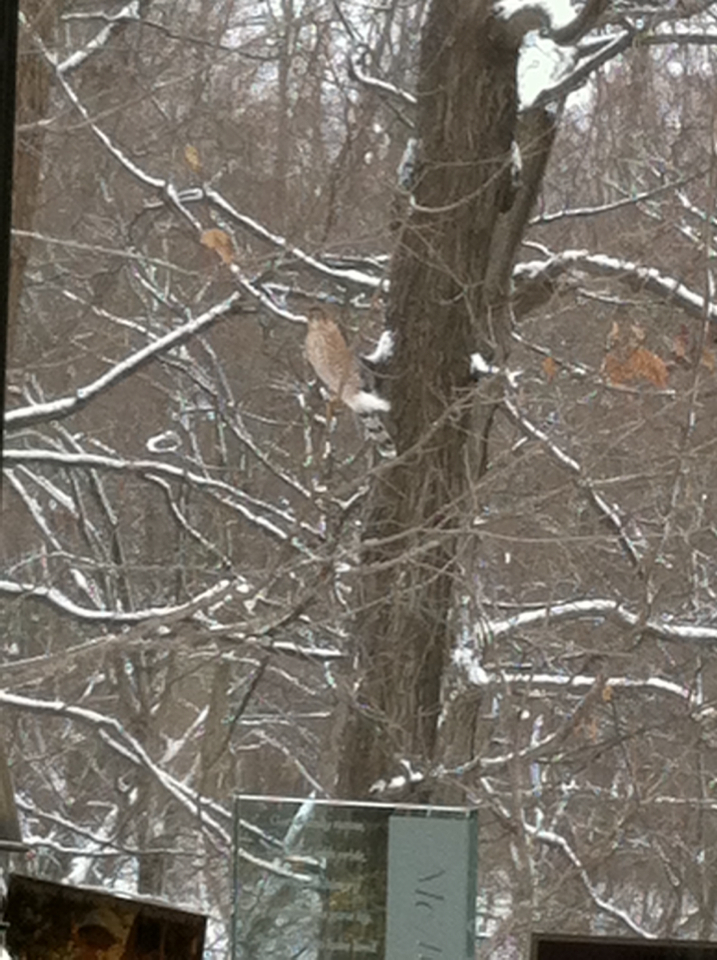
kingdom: Animalia
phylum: Chordata
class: Aves
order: Accipitriformes
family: Accipitridae
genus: Accipiter
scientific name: Accipiter cooperii
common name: Cooper's hawk
